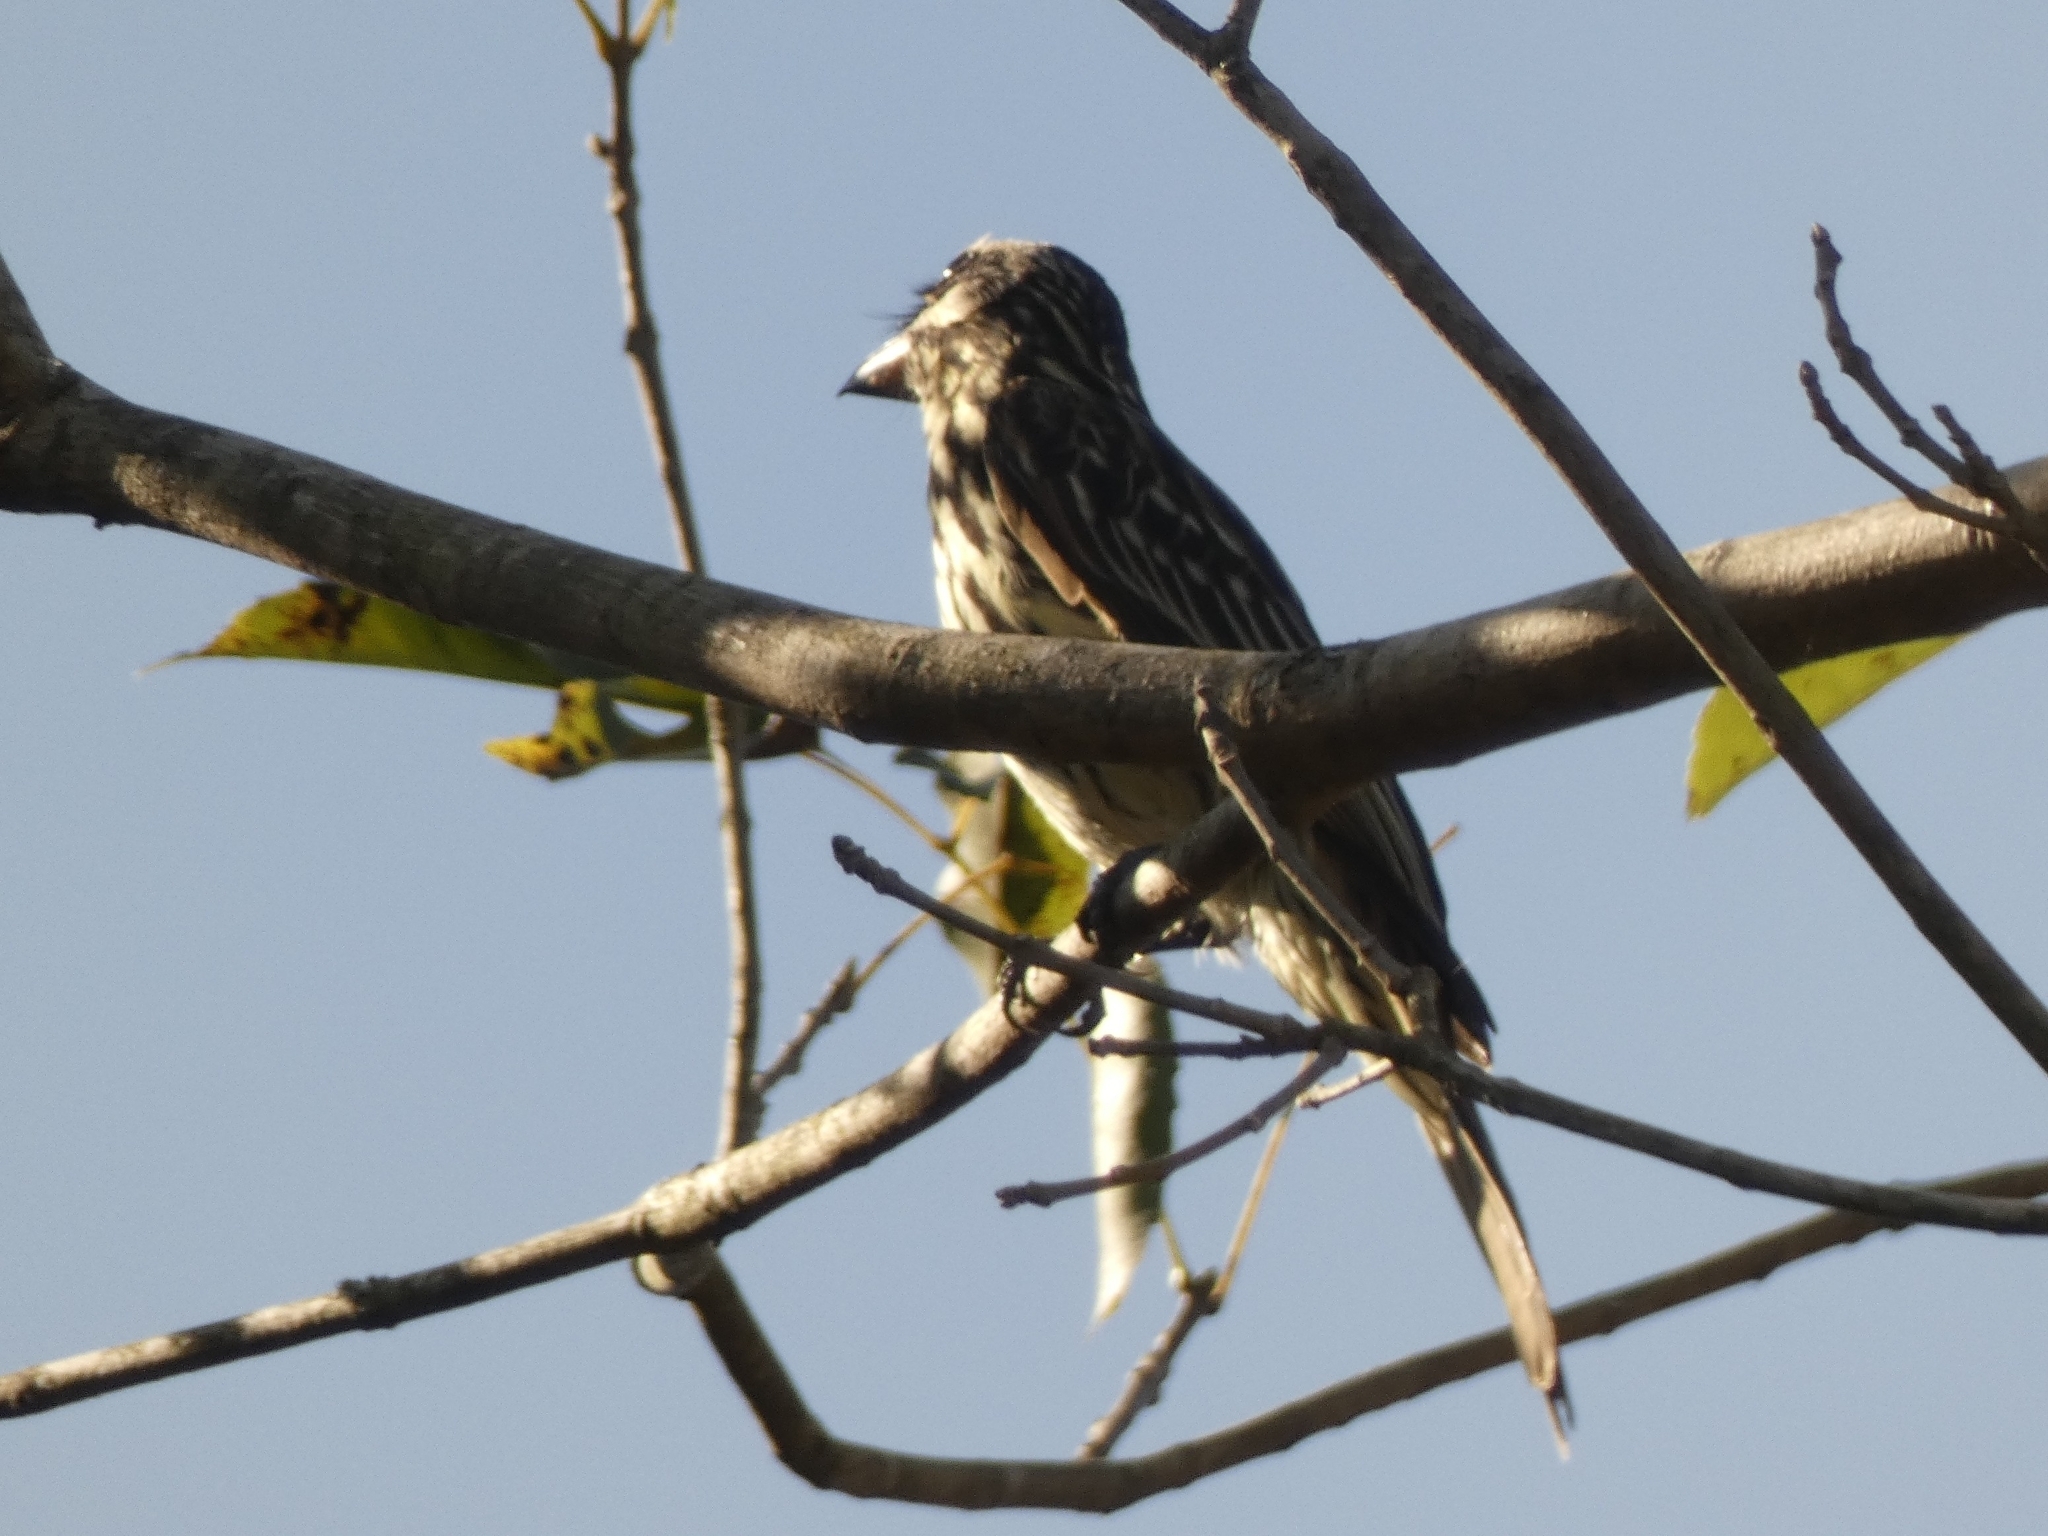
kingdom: Animalia
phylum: Chordata
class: Aves
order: Passeriformes
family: Tyrannidae
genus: Myiodynastes
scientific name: Myiodynastes maculatus
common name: Streaked flycatcher
